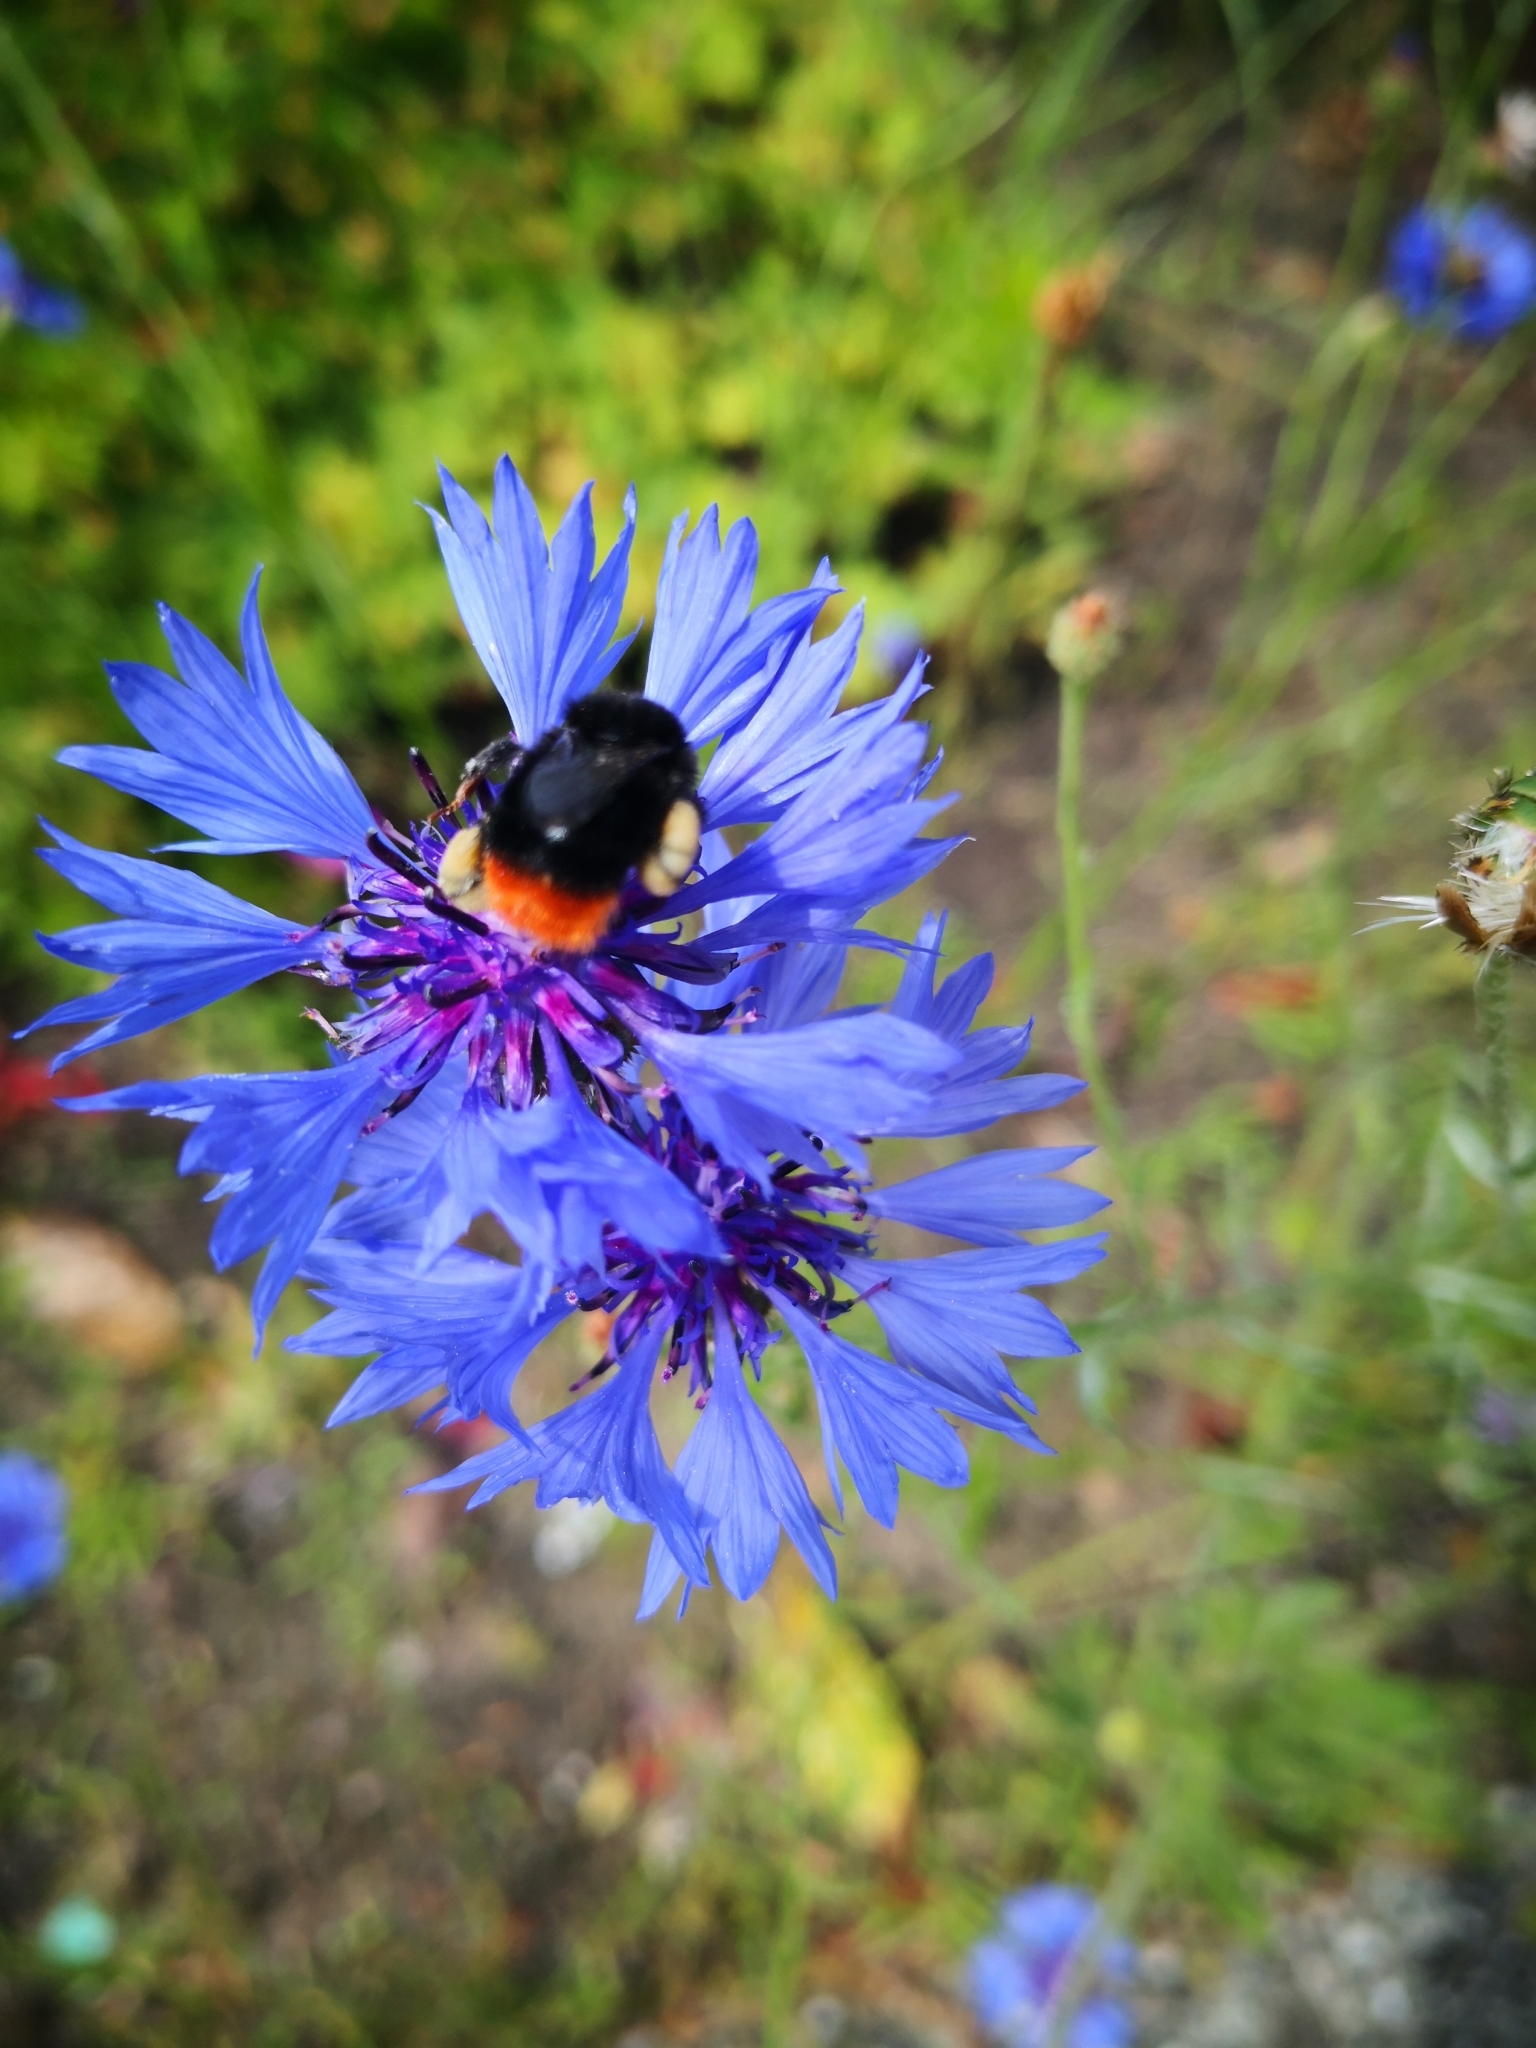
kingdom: Animalia
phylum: Arthropoda
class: Insecta
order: Hymenoptera
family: Apidae
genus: Bombus
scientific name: Bombus lapidarius
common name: Large red-tailed humble-bee
